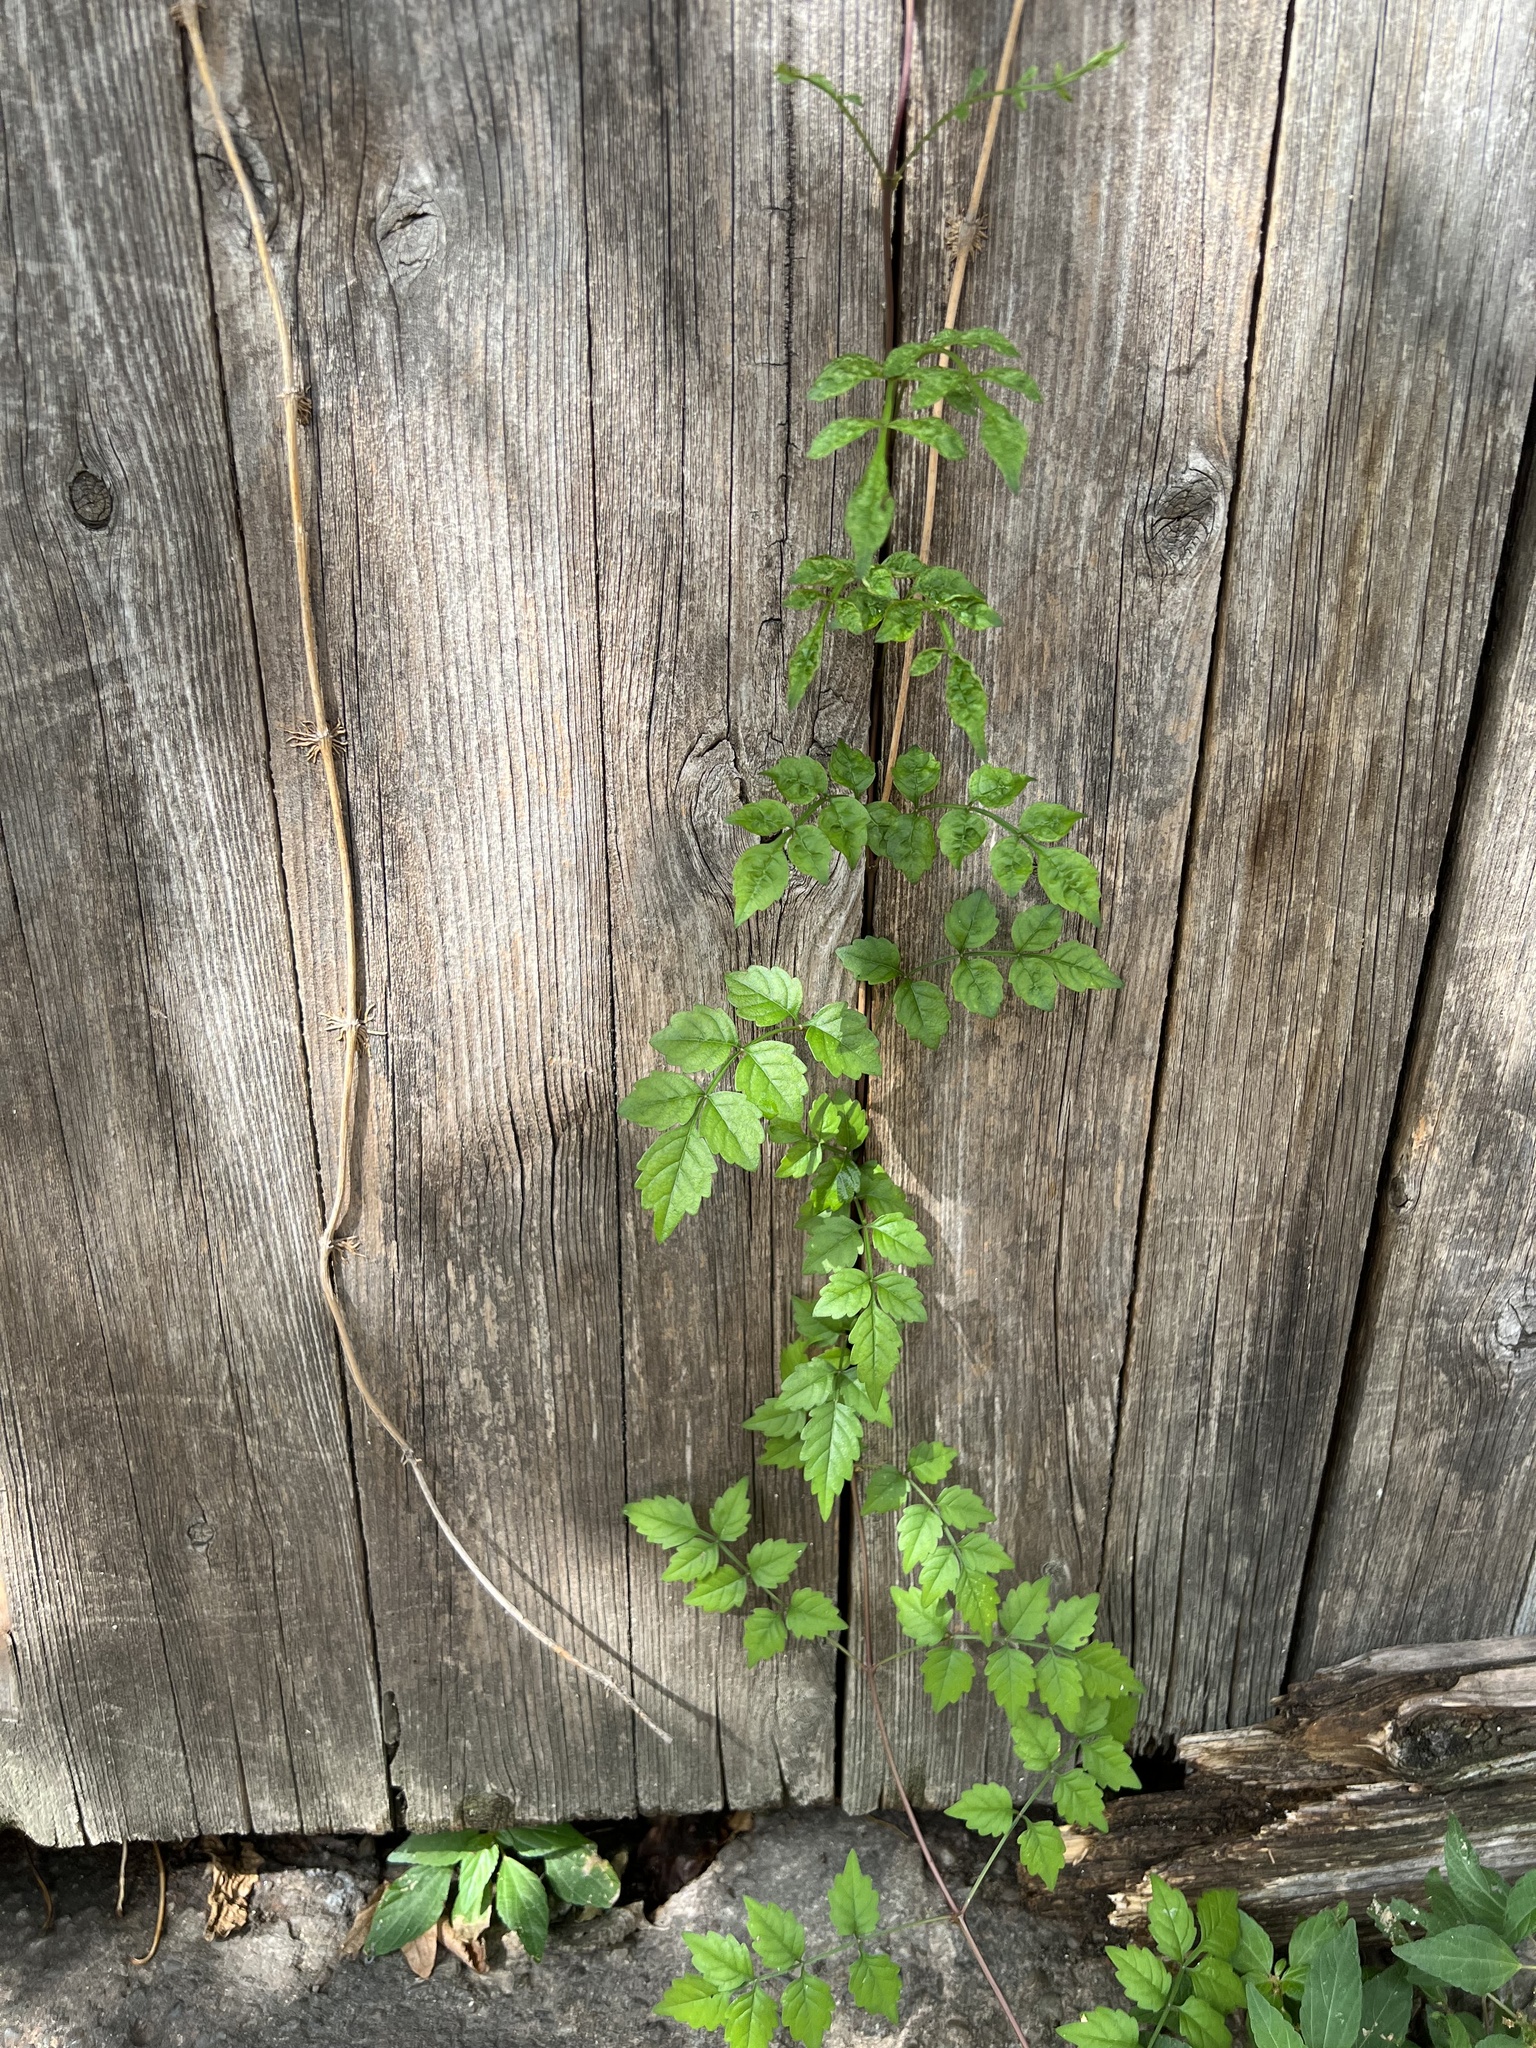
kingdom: Plantae
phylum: Tracheophyta
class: Magnoliopsida
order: Lamiales
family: Bignoniaceae
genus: Campsis
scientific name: Campsis radicans
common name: Trumpet-creeper
